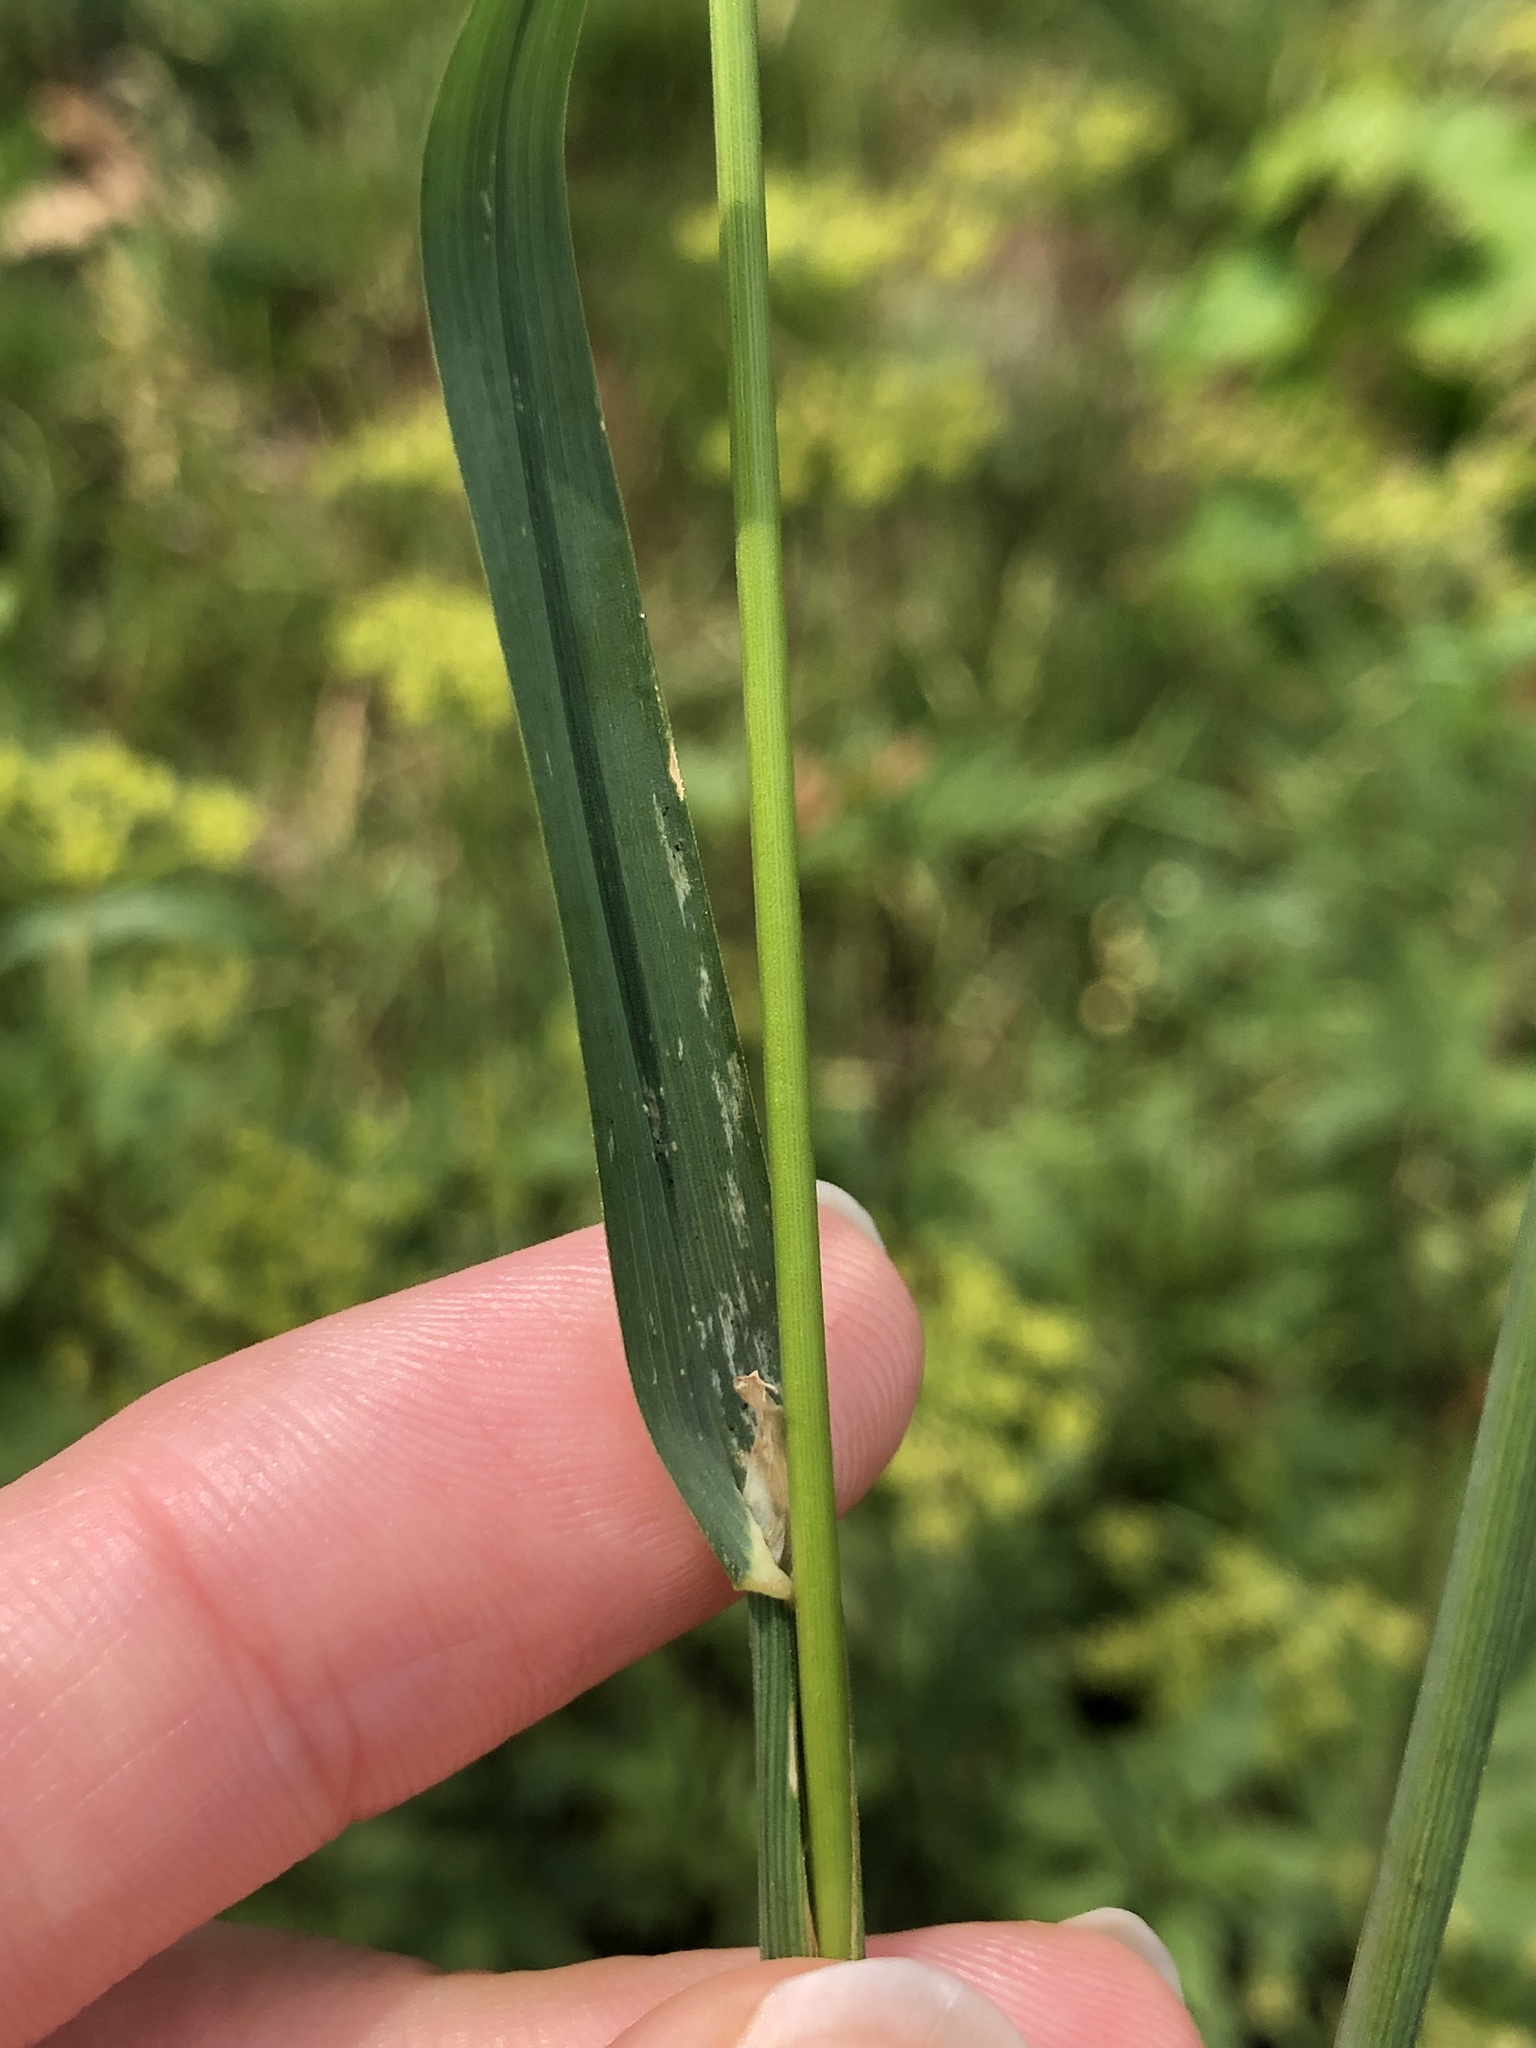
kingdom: Plantae
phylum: Tracheophyta
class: Liliopsida
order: Poales
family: Poaceae
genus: Dactylis
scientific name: Dactylis glomerata
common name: Orchardgrass
